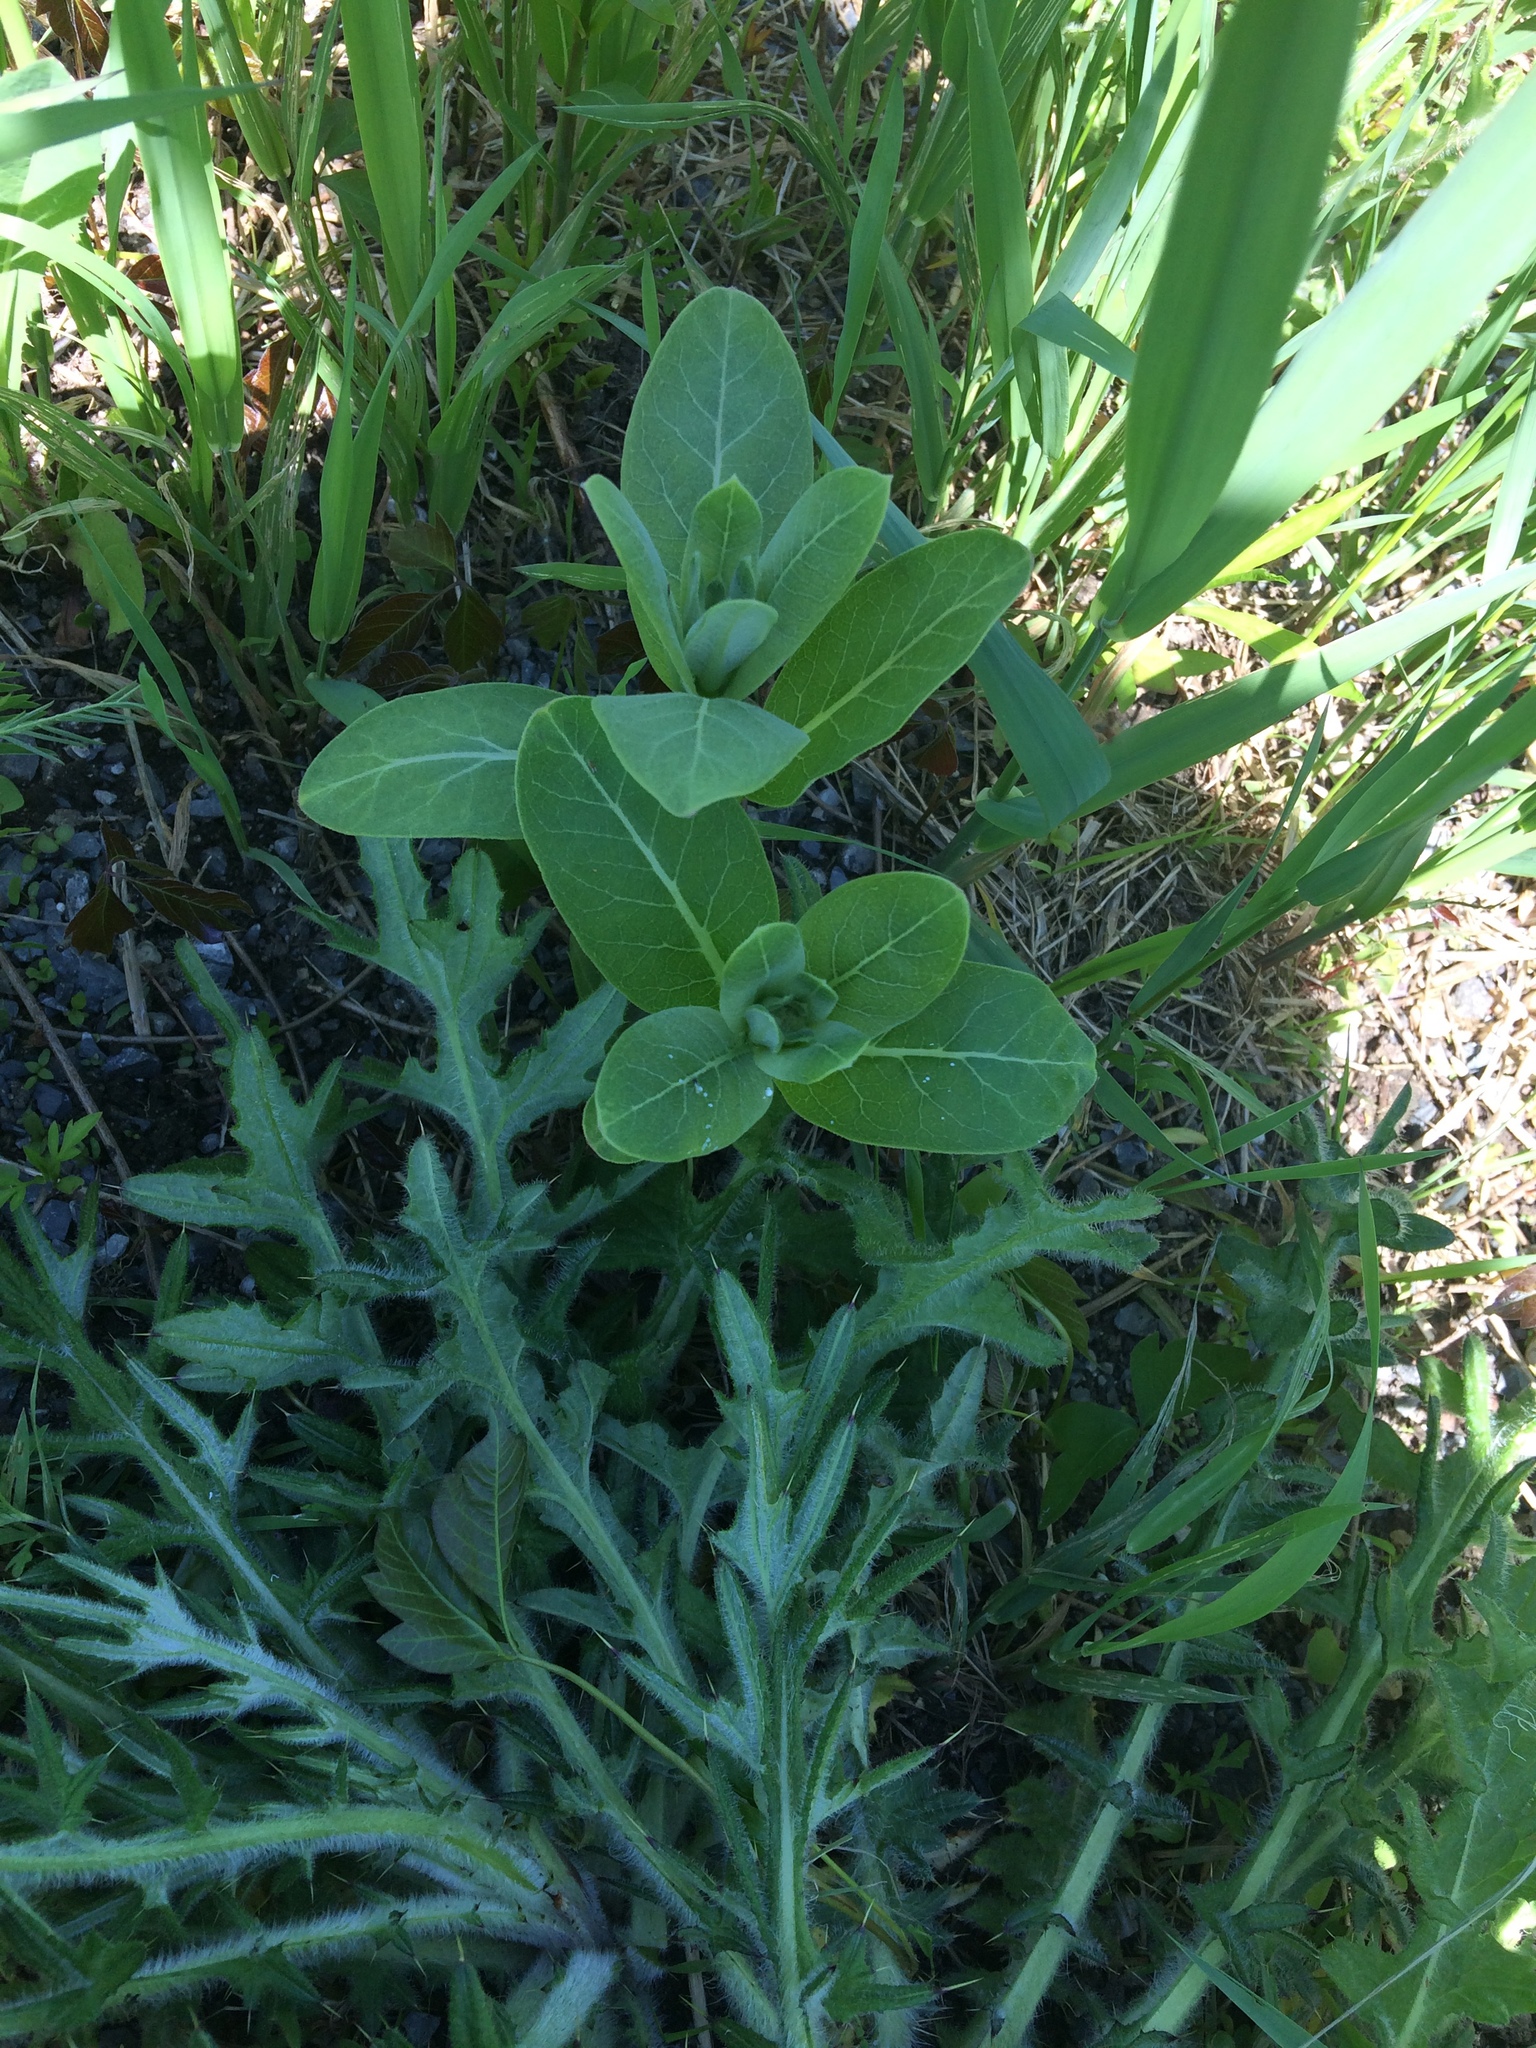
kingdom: Plantae
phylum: Tracheophyta
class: Magnoliopsida
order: Gentianales
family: Apocynaceae
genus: Asclepias
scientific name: Asclepias syriaca
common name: Common milkweed
